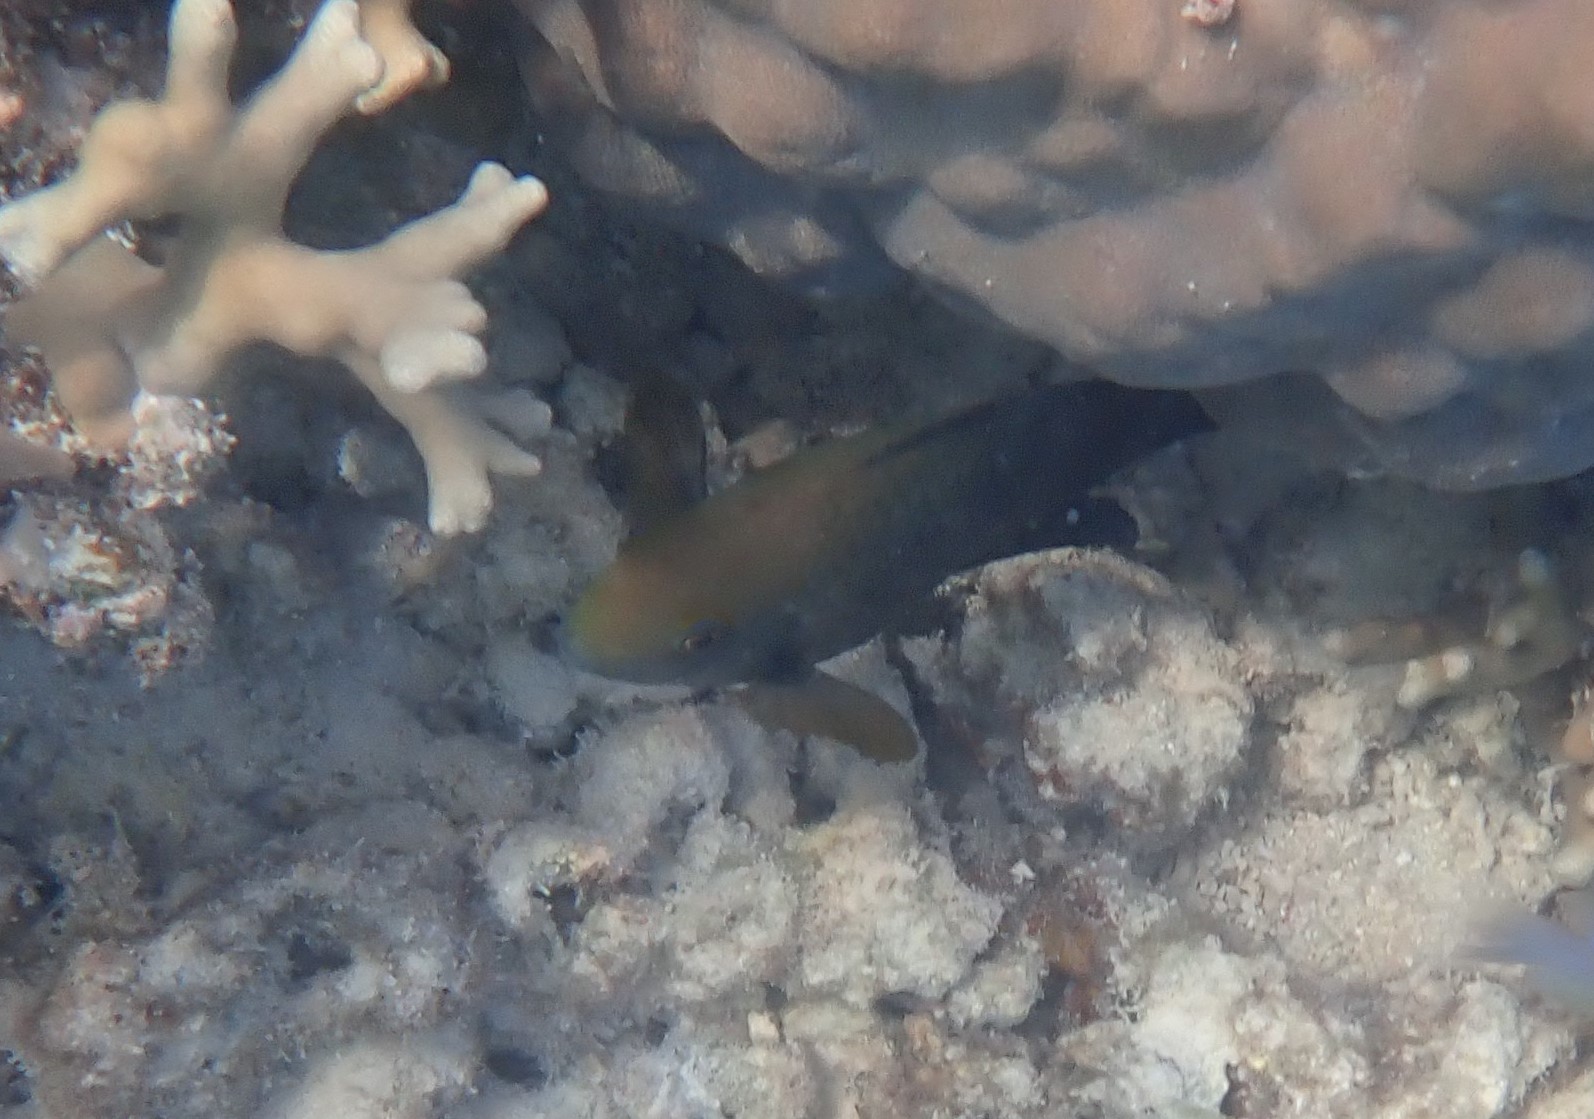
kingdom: Animalia
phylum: Chordata
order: Perciformes
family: Pomacentridae
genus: Hemiglyphidodon
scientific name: Hemiglyphidodon plagiometopon
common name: Lagoon damsel
